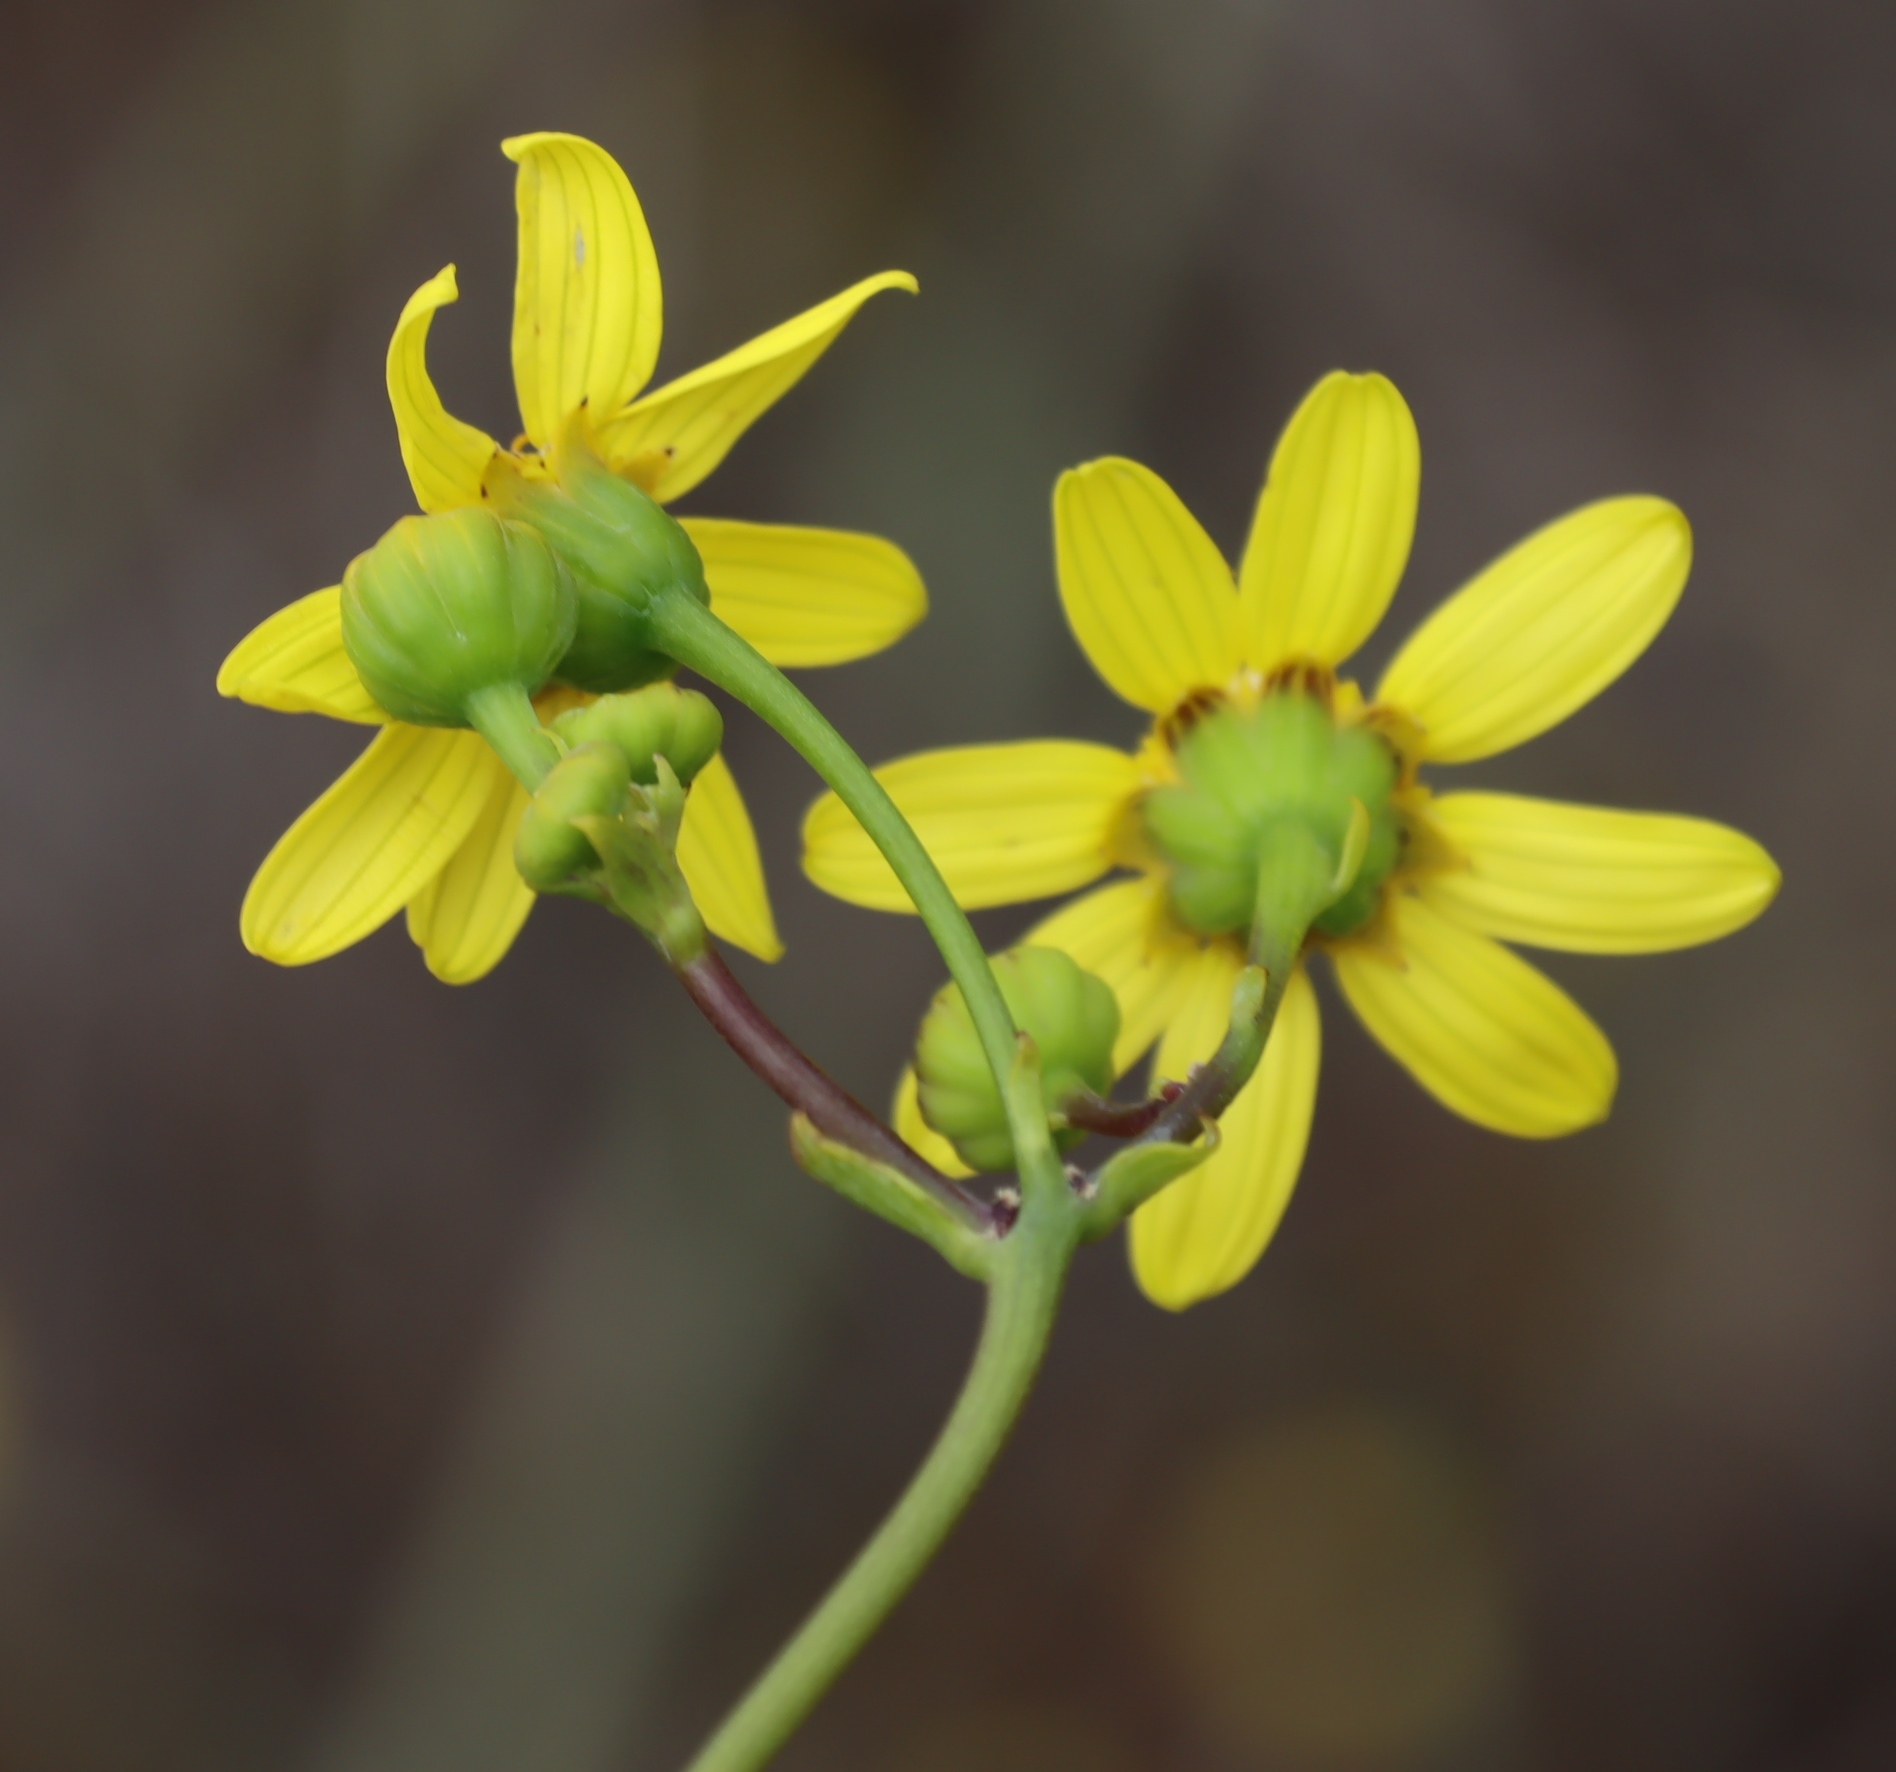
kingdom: Plantae
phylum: Tracheophyta
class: Magnoliopsida
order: Asterales
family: Asteraceae
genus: Othonna
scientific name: Othonna quinquedentata
